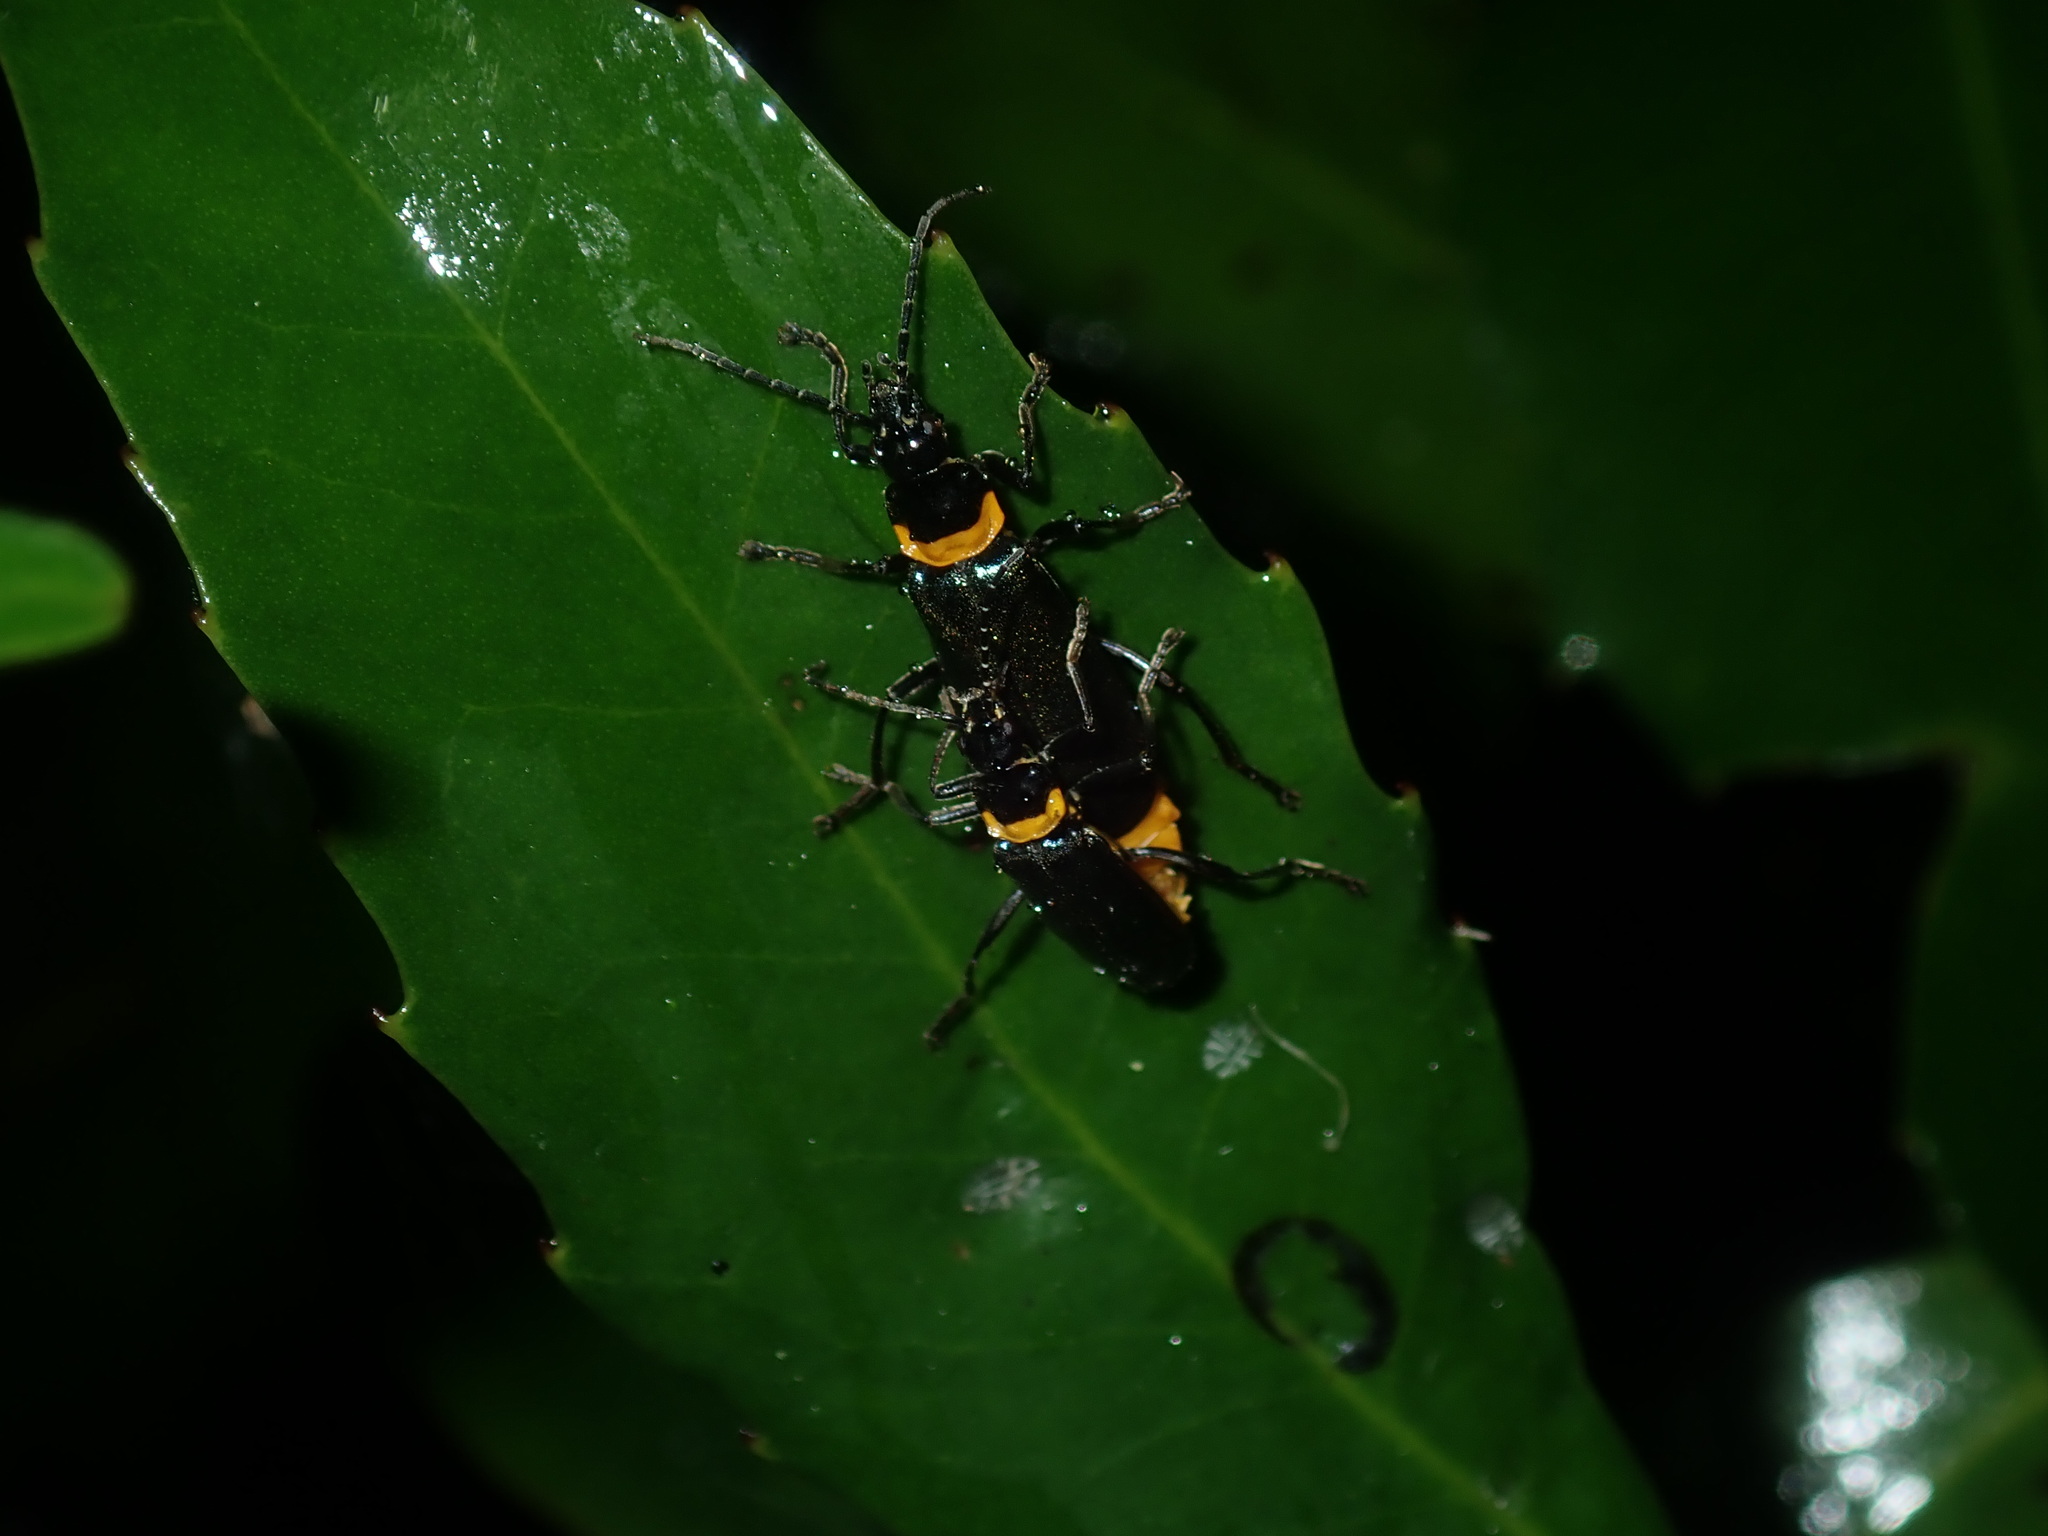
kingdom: Animalia
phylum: Arthropoda
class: Insecta
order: Coleoptera
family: Cantharidae
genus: Chauliognathus
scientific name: Chauliognathus
